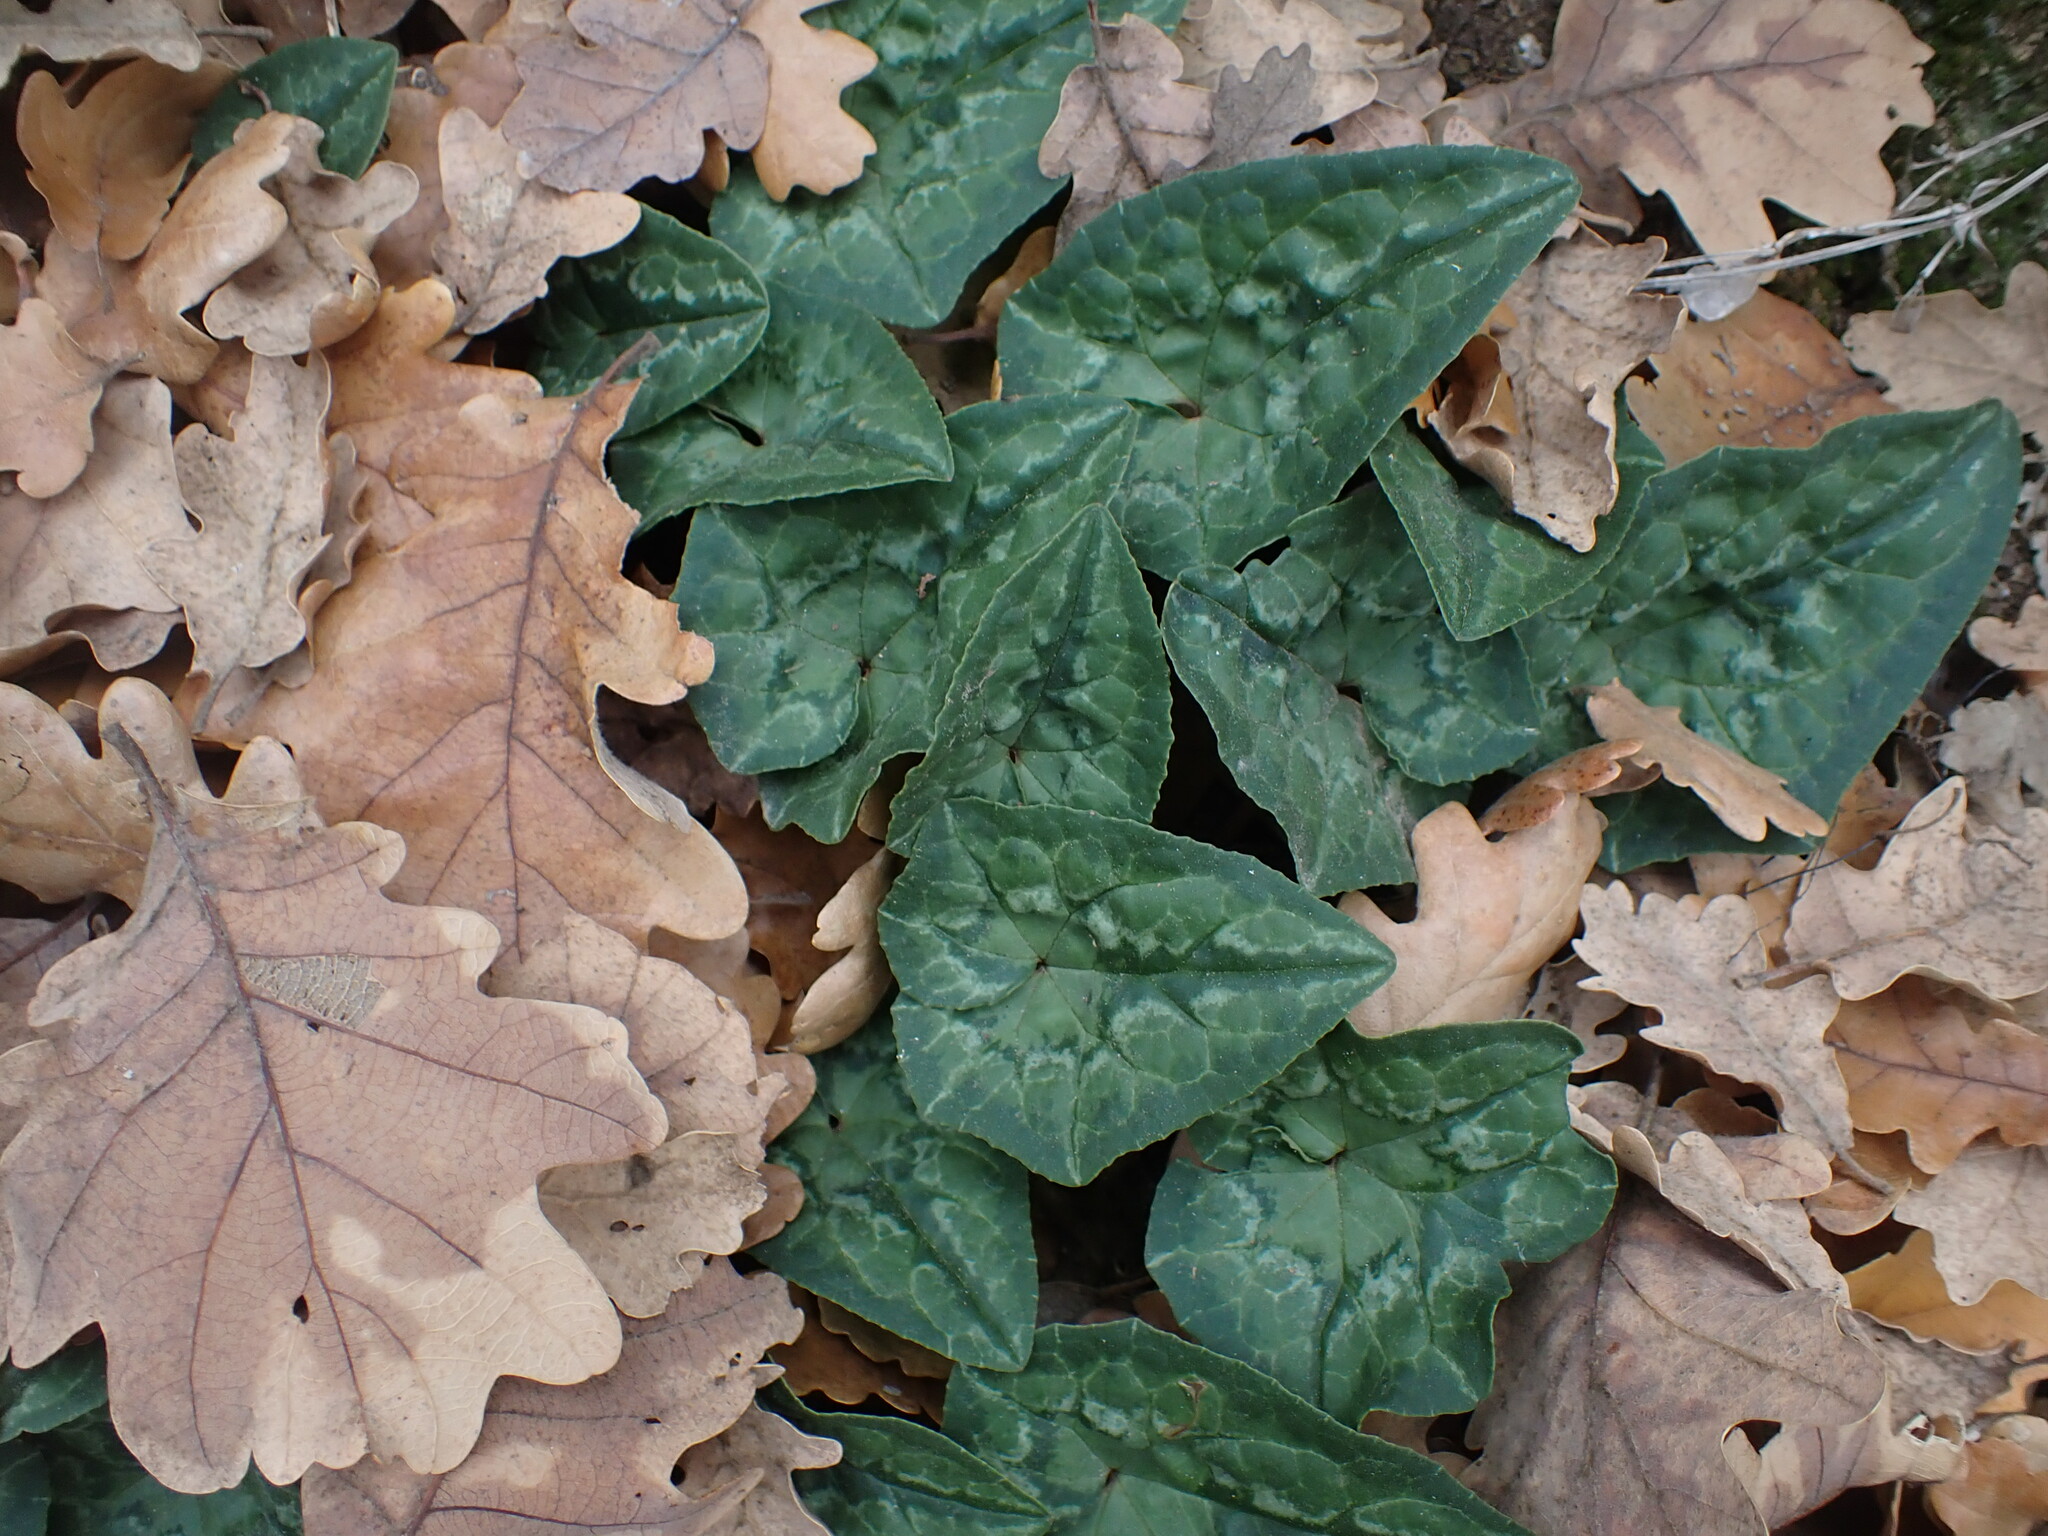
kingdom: Plantae
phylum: Tracheophyta
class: Magnoliopsida
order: Ericales
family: Primulaceae
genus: Cyclamen
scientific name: Cyclamen hederifolium
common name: Sowbread
